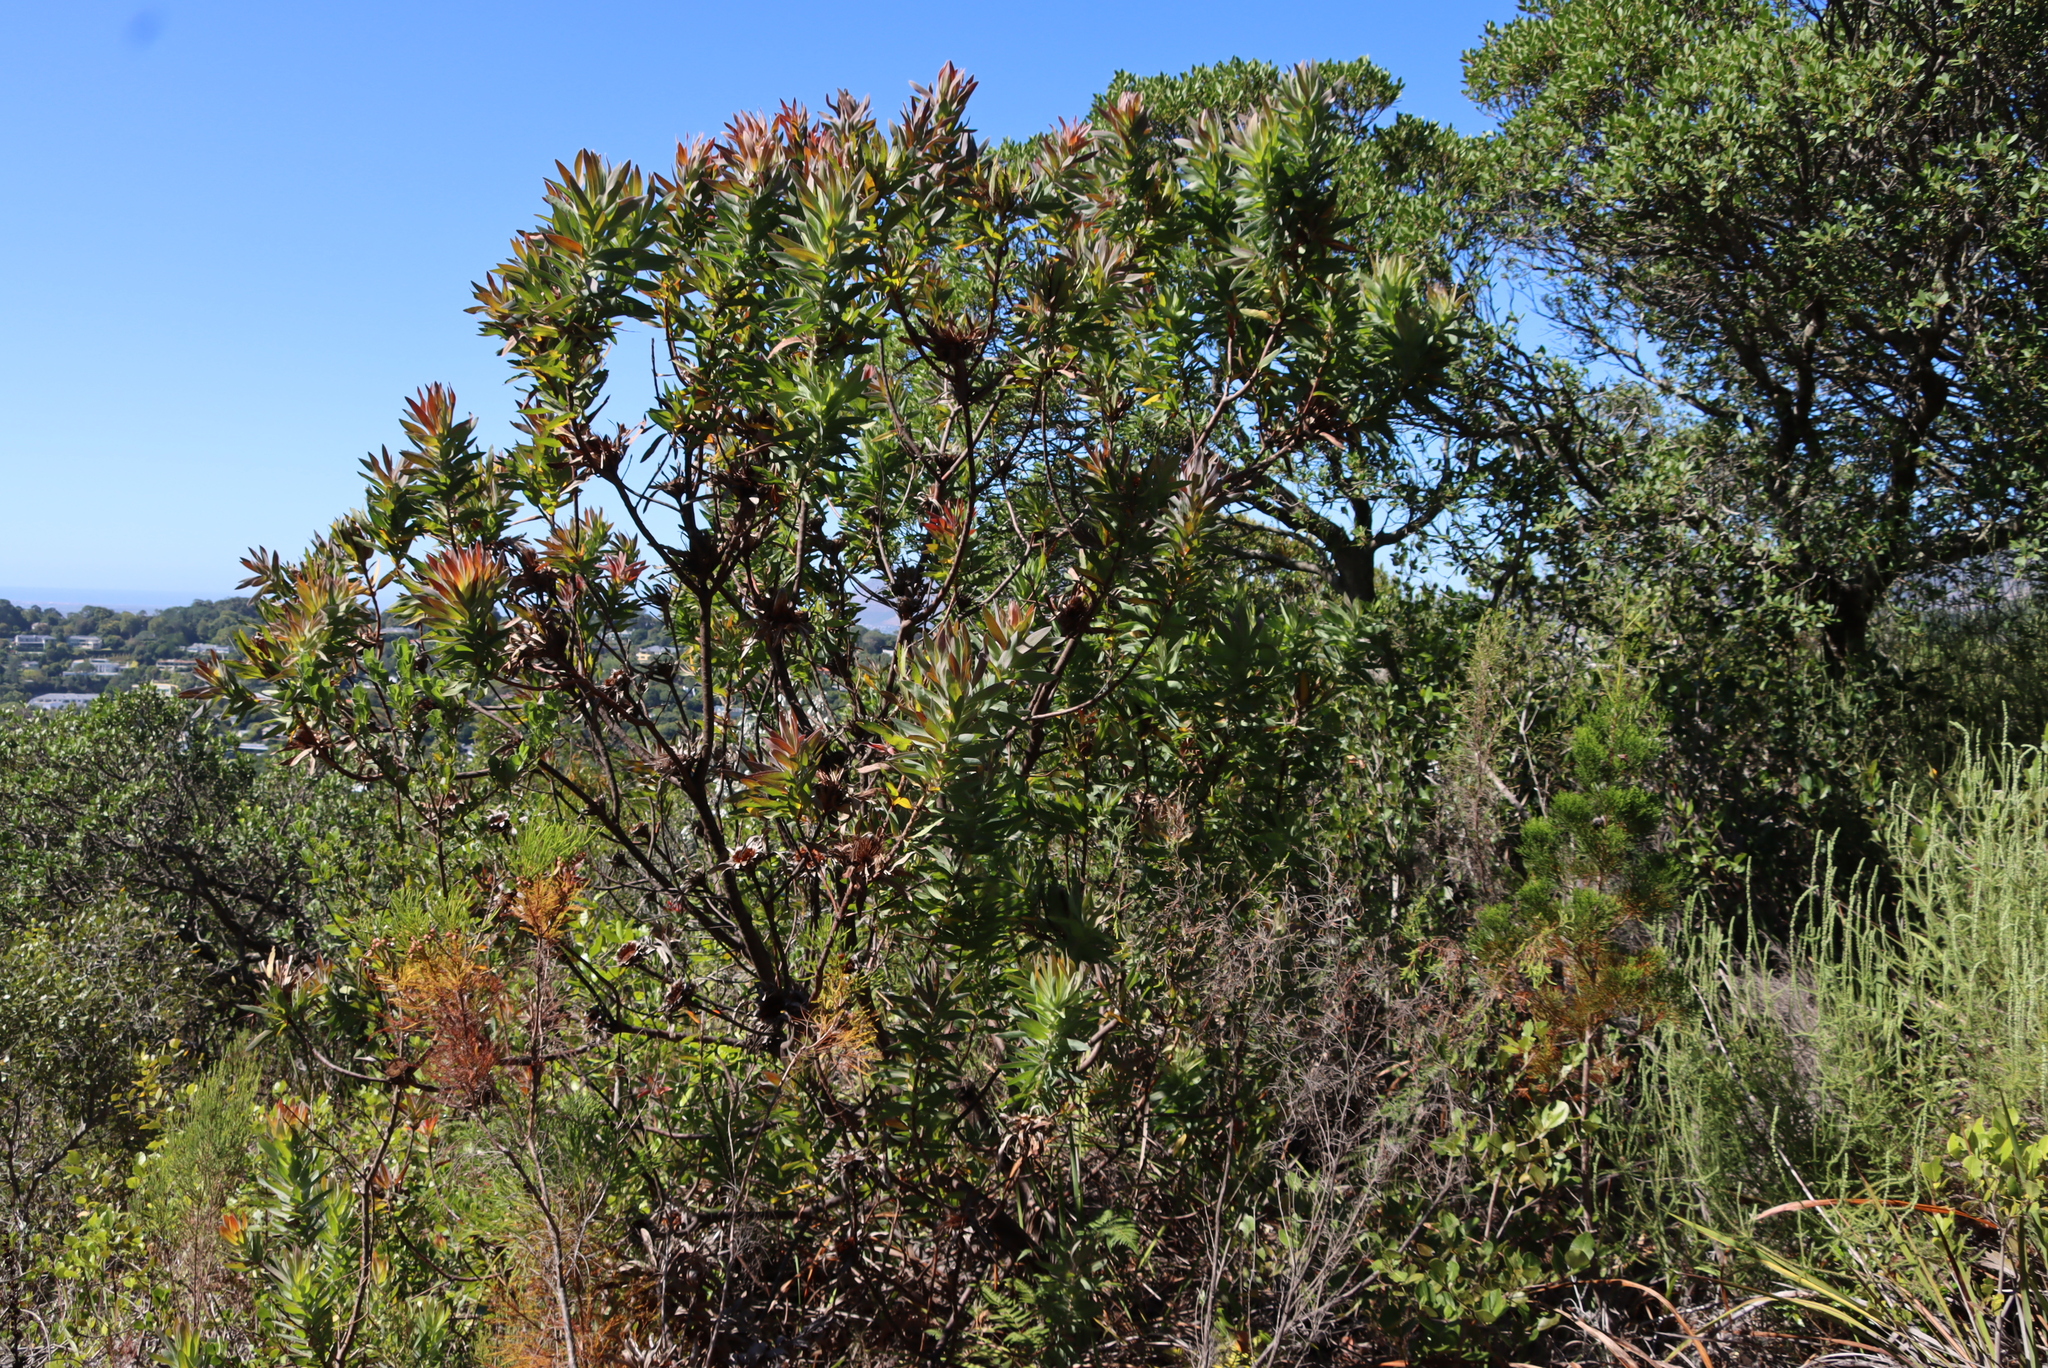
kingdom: Plantae
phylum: Tracheophyta
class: Magnoliopsida
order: Proteales
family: Proteaceae
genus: Protea
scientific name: Protea coronata
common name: Green sugarbush
